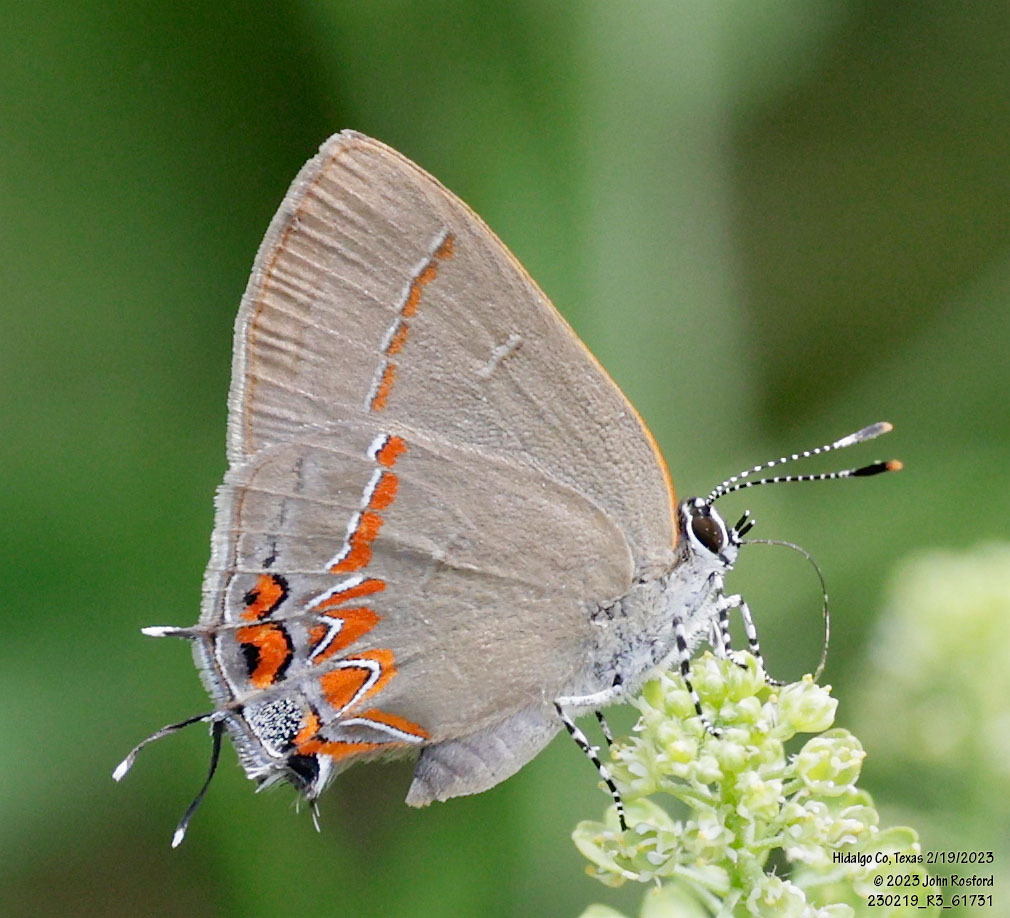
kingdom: Animalia
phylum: Arthropoda
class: Insecta
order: Lepidoptera
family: Lycaenidae
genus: Calycopis
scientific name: Calycopis isobeon
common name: Dusky-blue groundstreak
